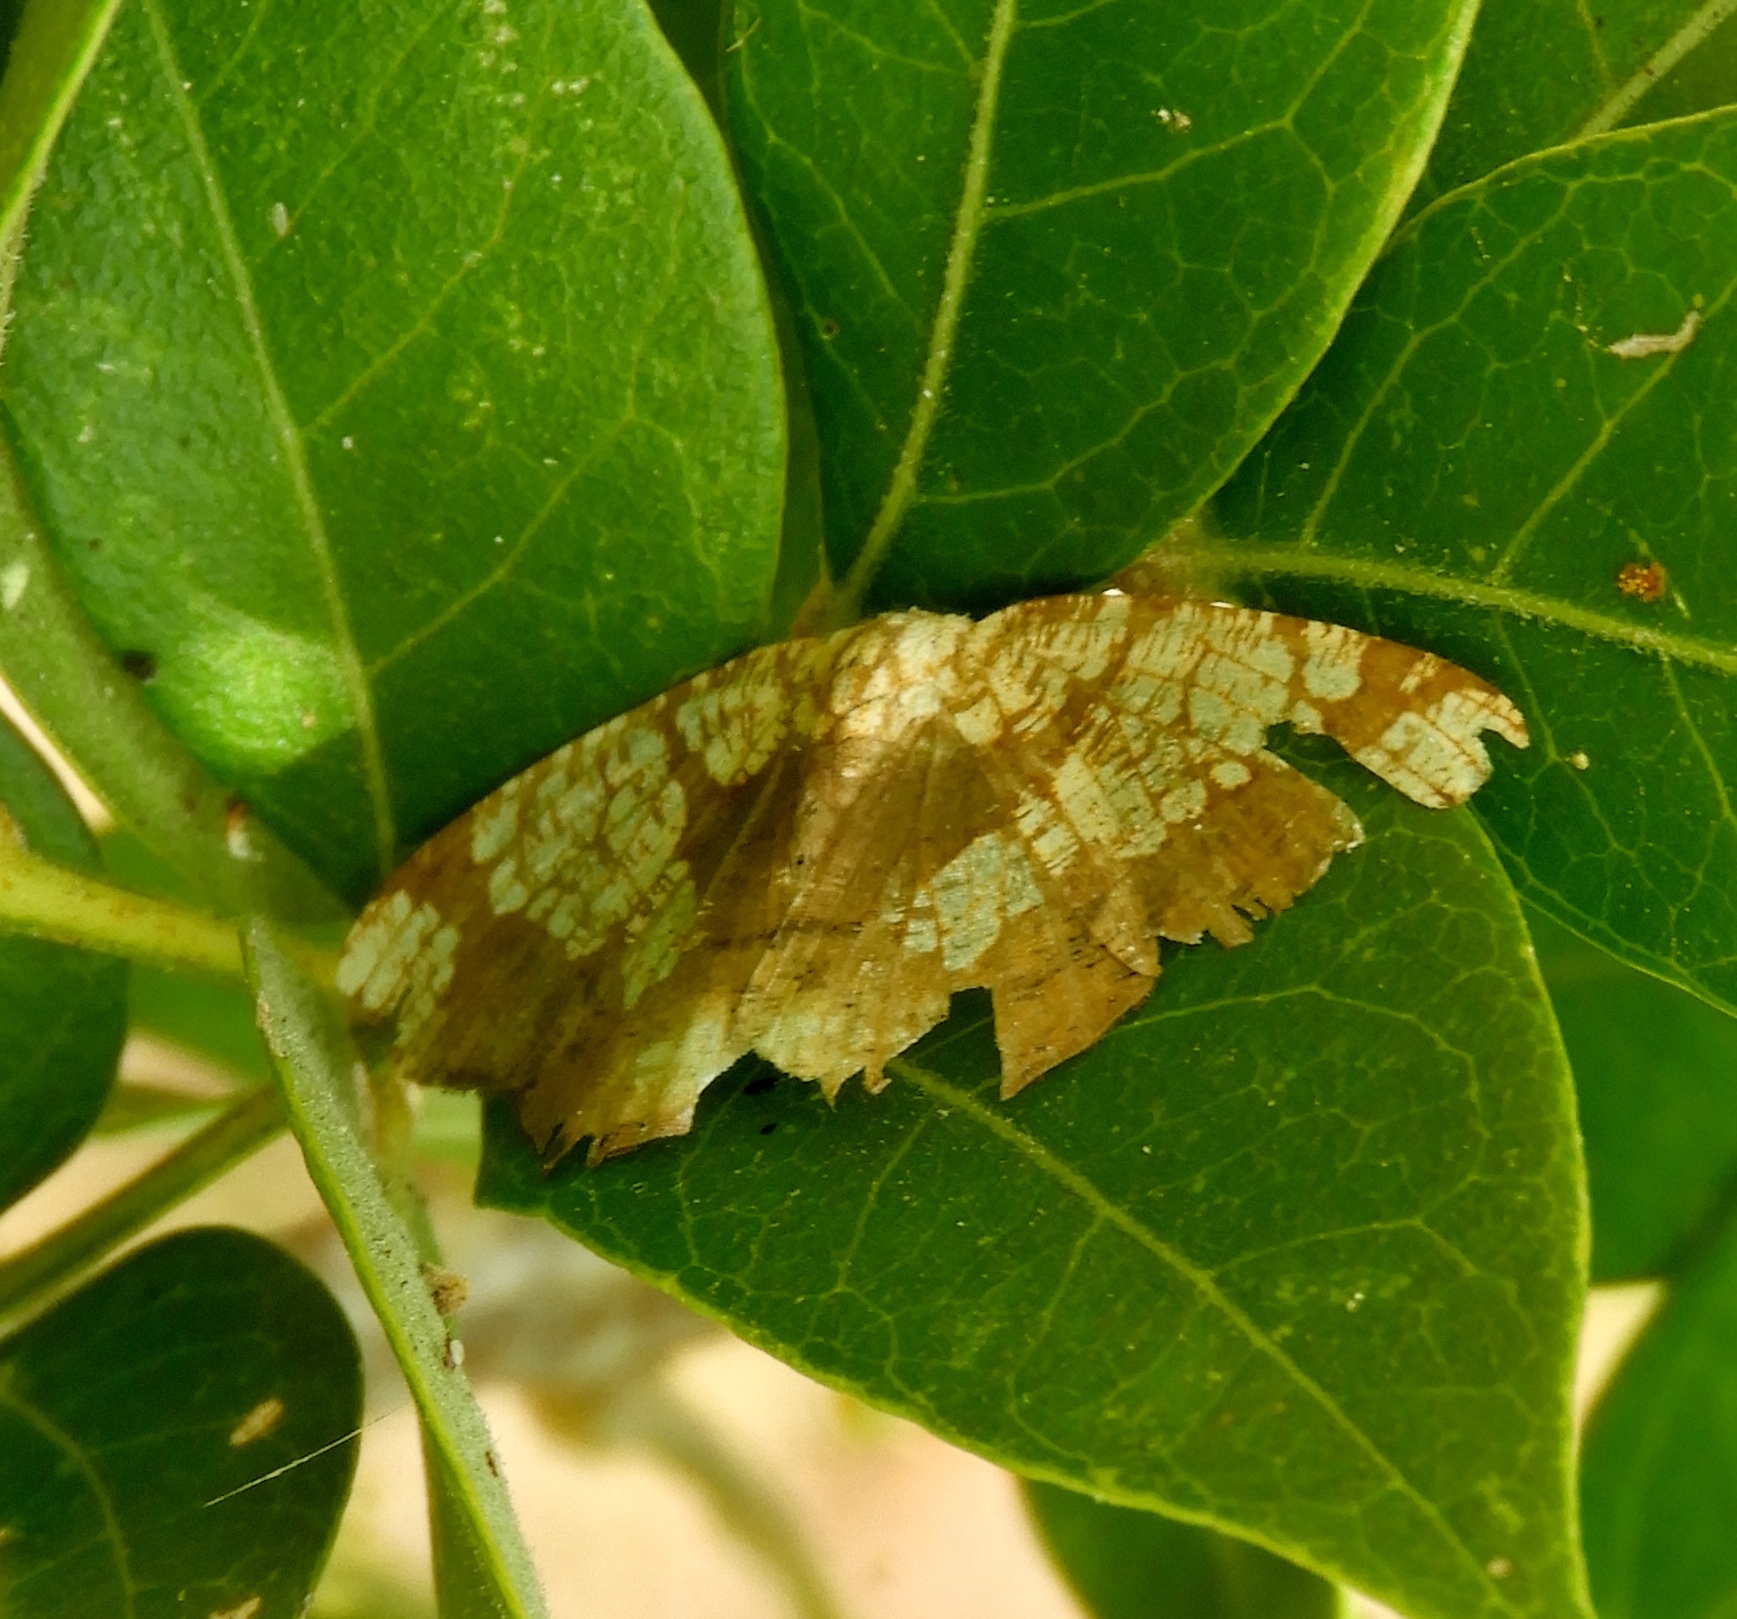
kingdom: Animalia
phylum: Arthropoda
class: Insecta
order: Lepidoptera
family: Geometridae
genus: Nematocampa
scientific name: Nematocampa
